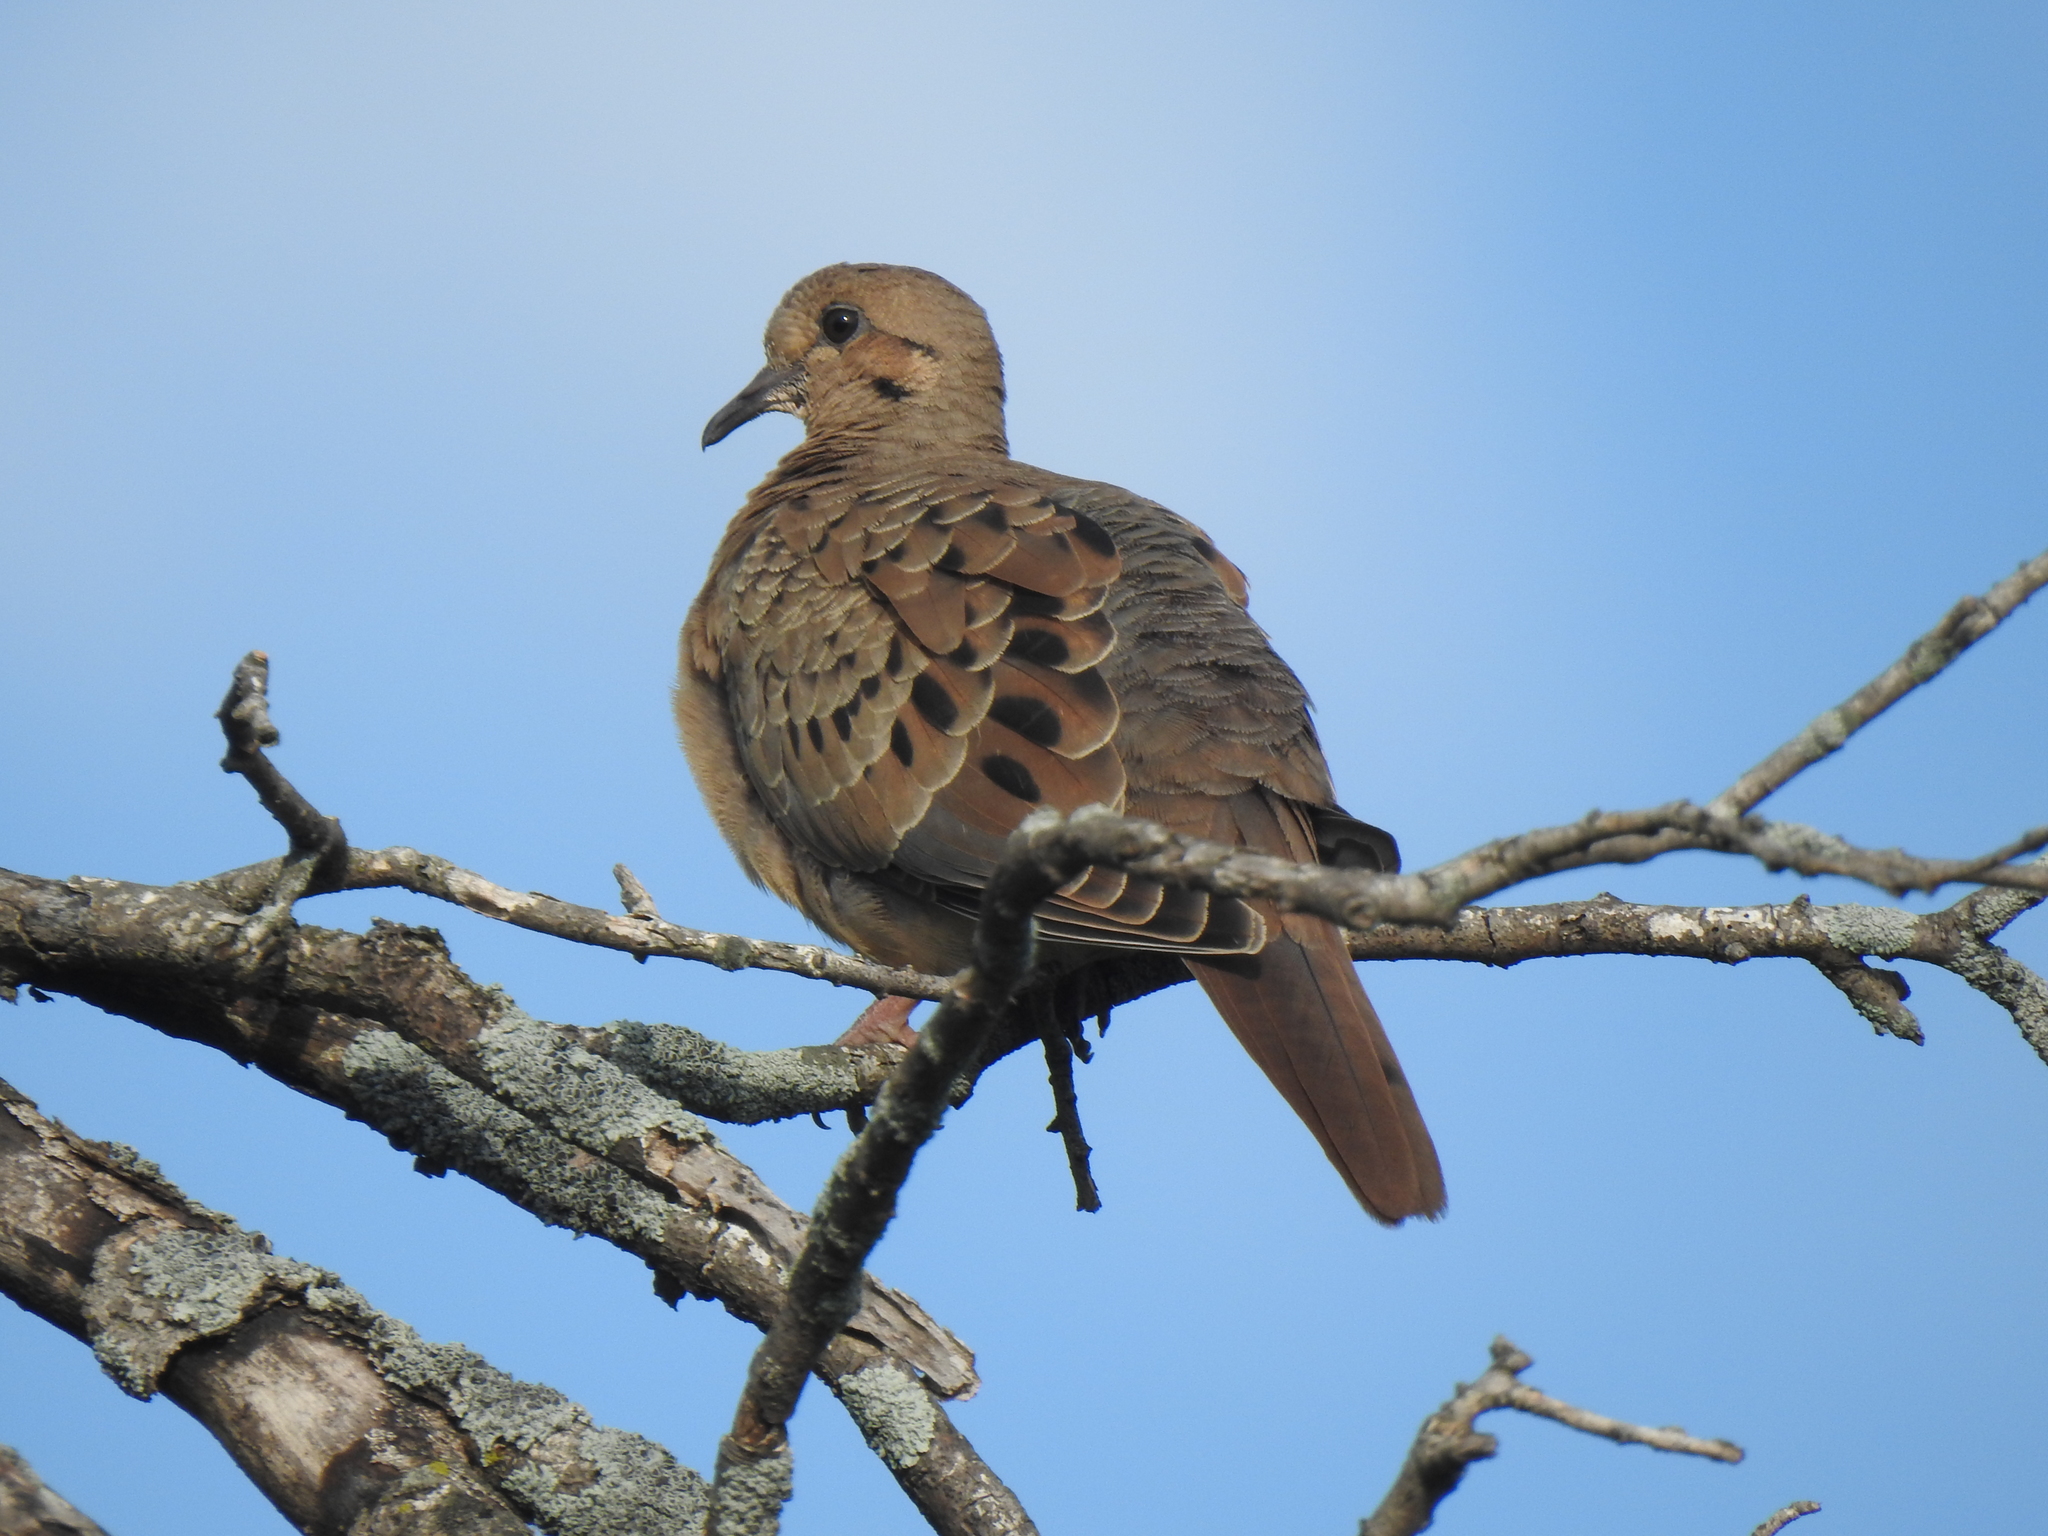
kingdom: Animalia
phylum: Chordata
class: Aves
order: Columbiformes
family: Columbidae
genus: Zenaida
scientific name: Zenaida macroura
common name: Mourning dove
